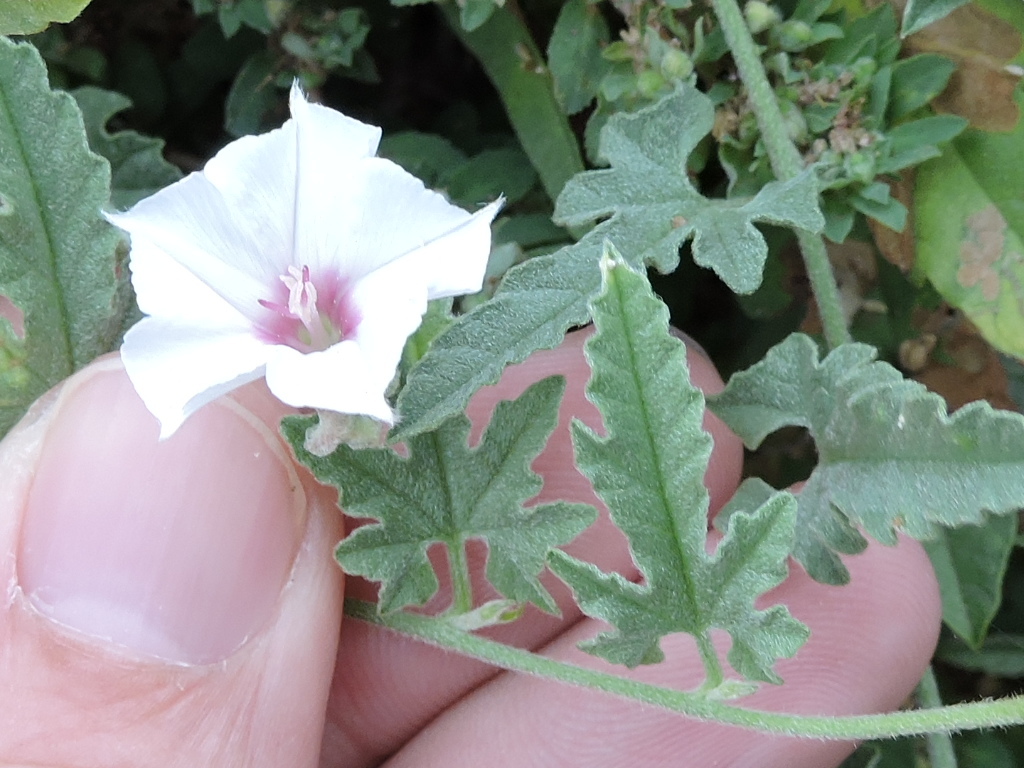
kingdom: Plantae
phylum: Tracheophyta
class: Magnoliopsida
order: Solanales
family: Convolvulaceae
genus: Convolvulus
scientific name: Convolvulus equitans
